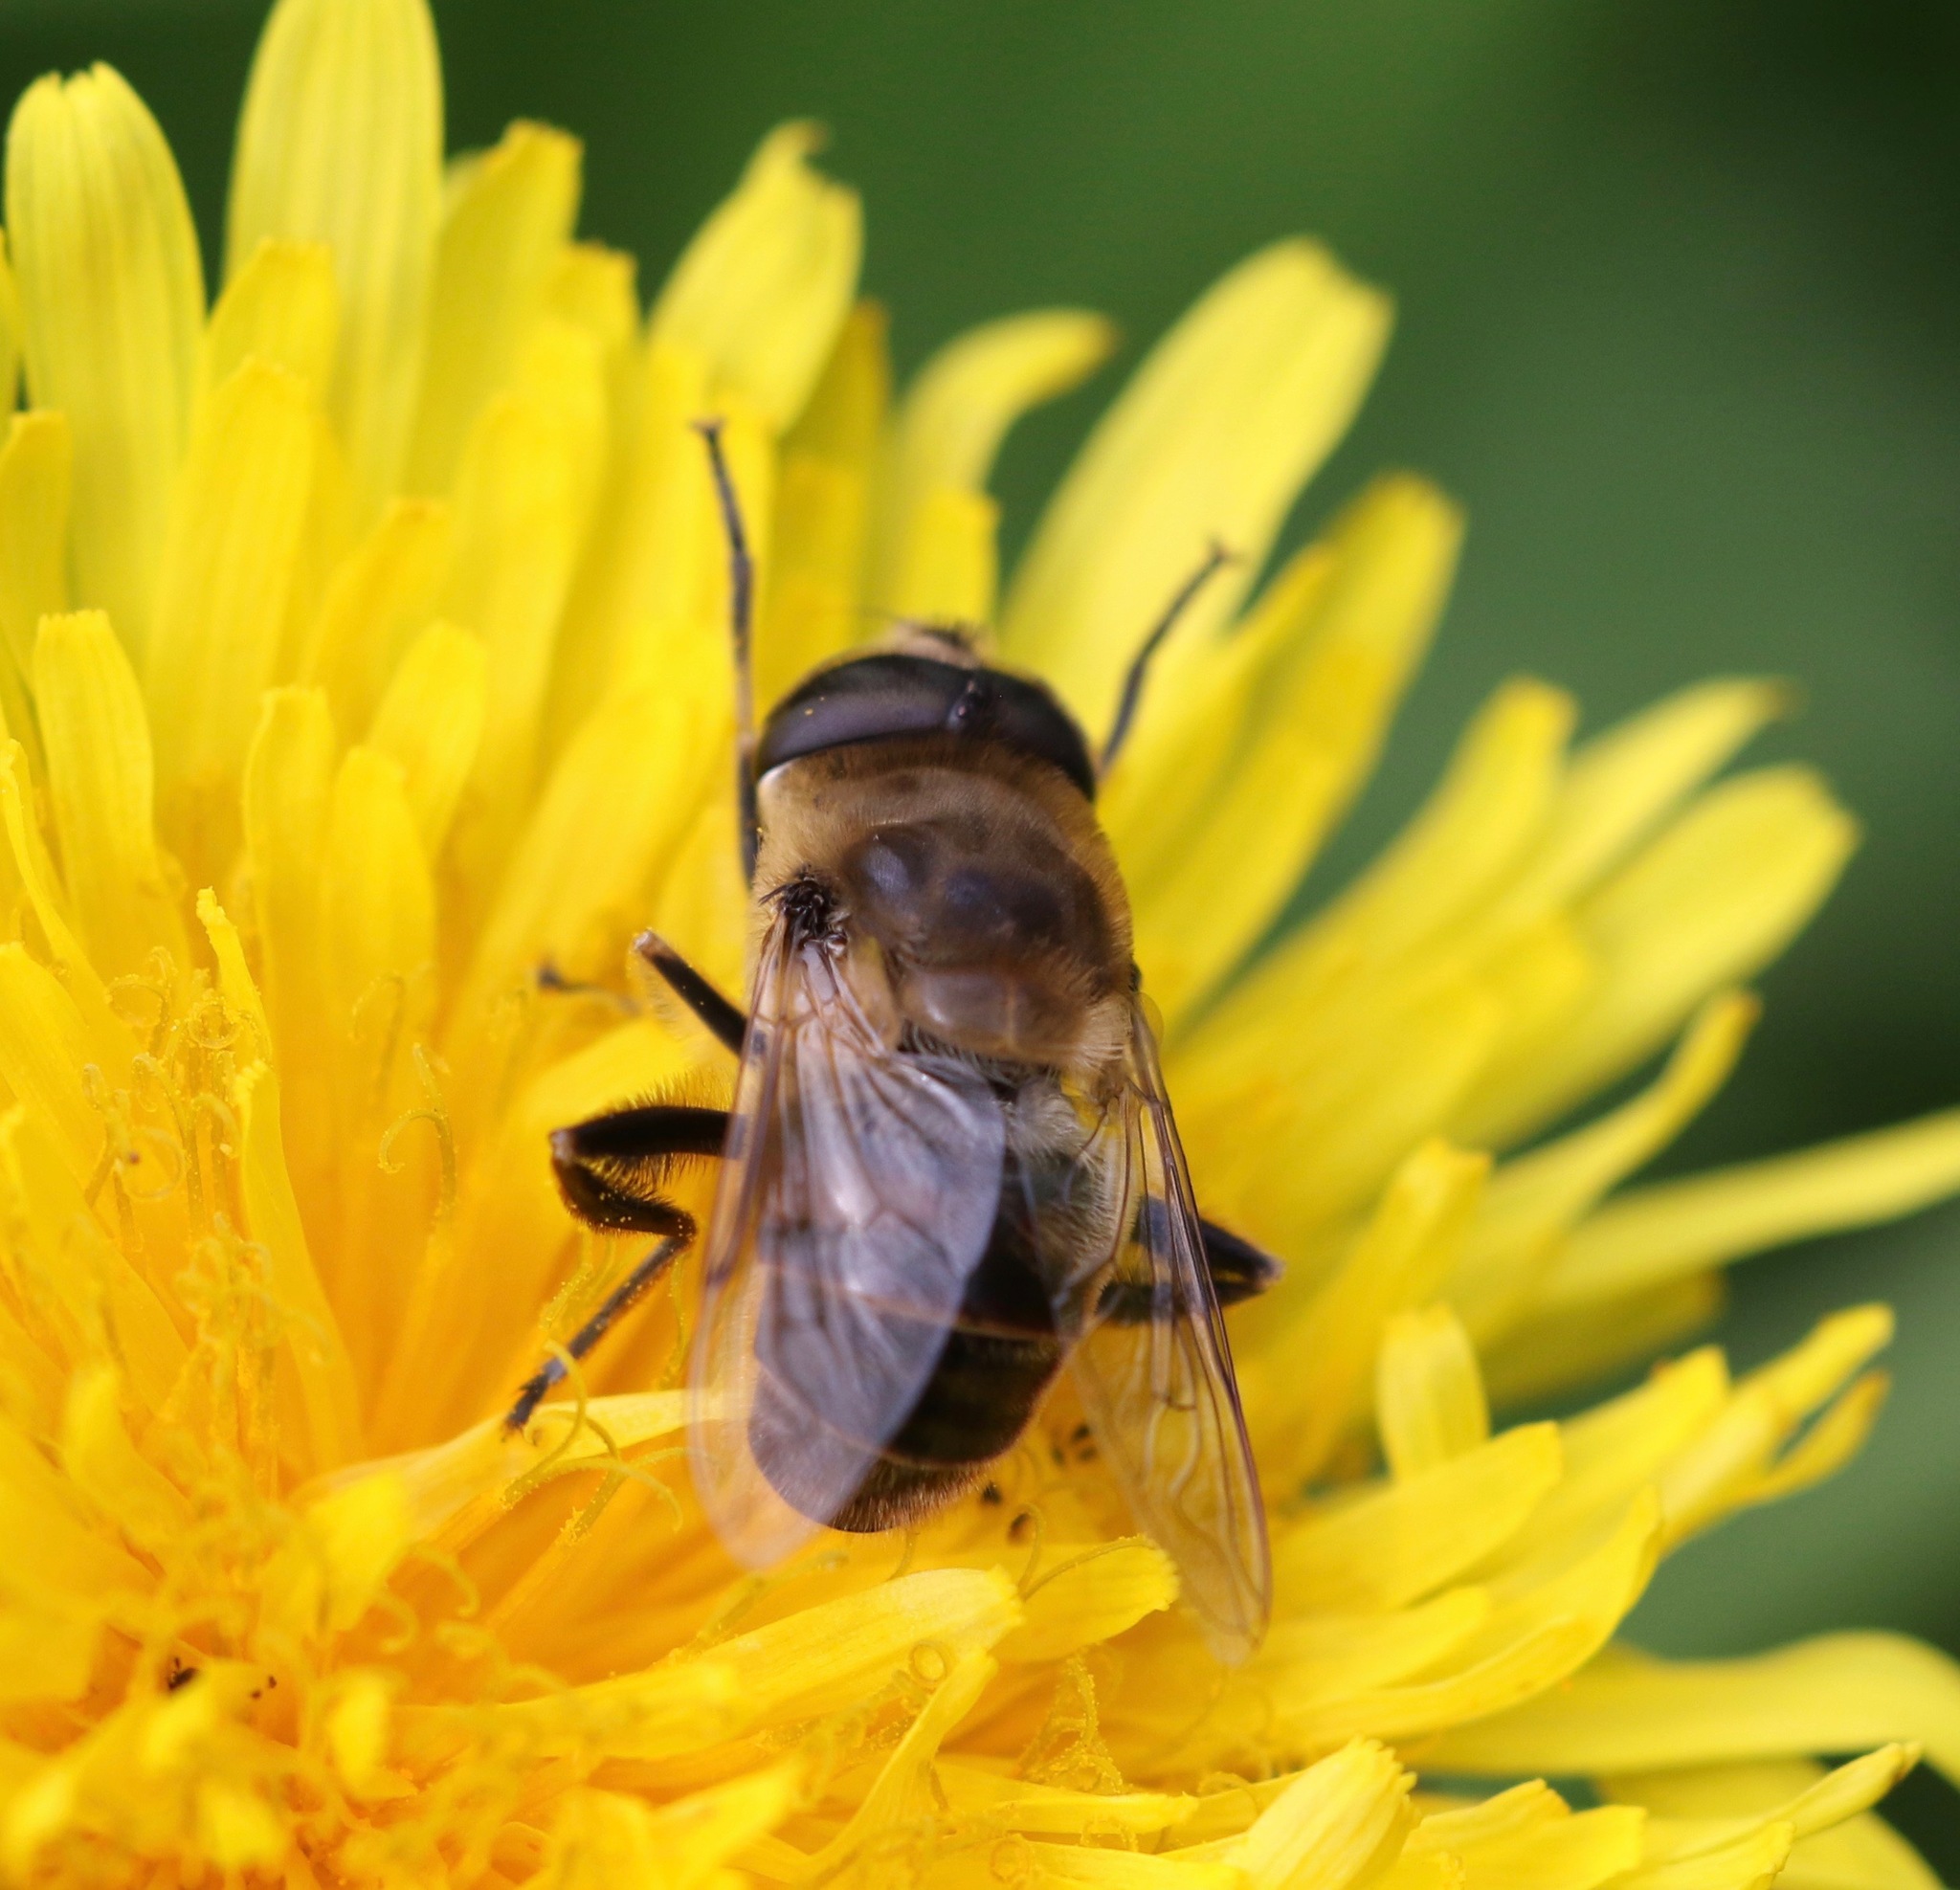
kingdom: Animalia
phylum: Arthropoda
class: Insecta
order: Diptera
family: Syrphidae
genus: Eristalis
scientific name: Eristalis tenax
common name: Drone fly
